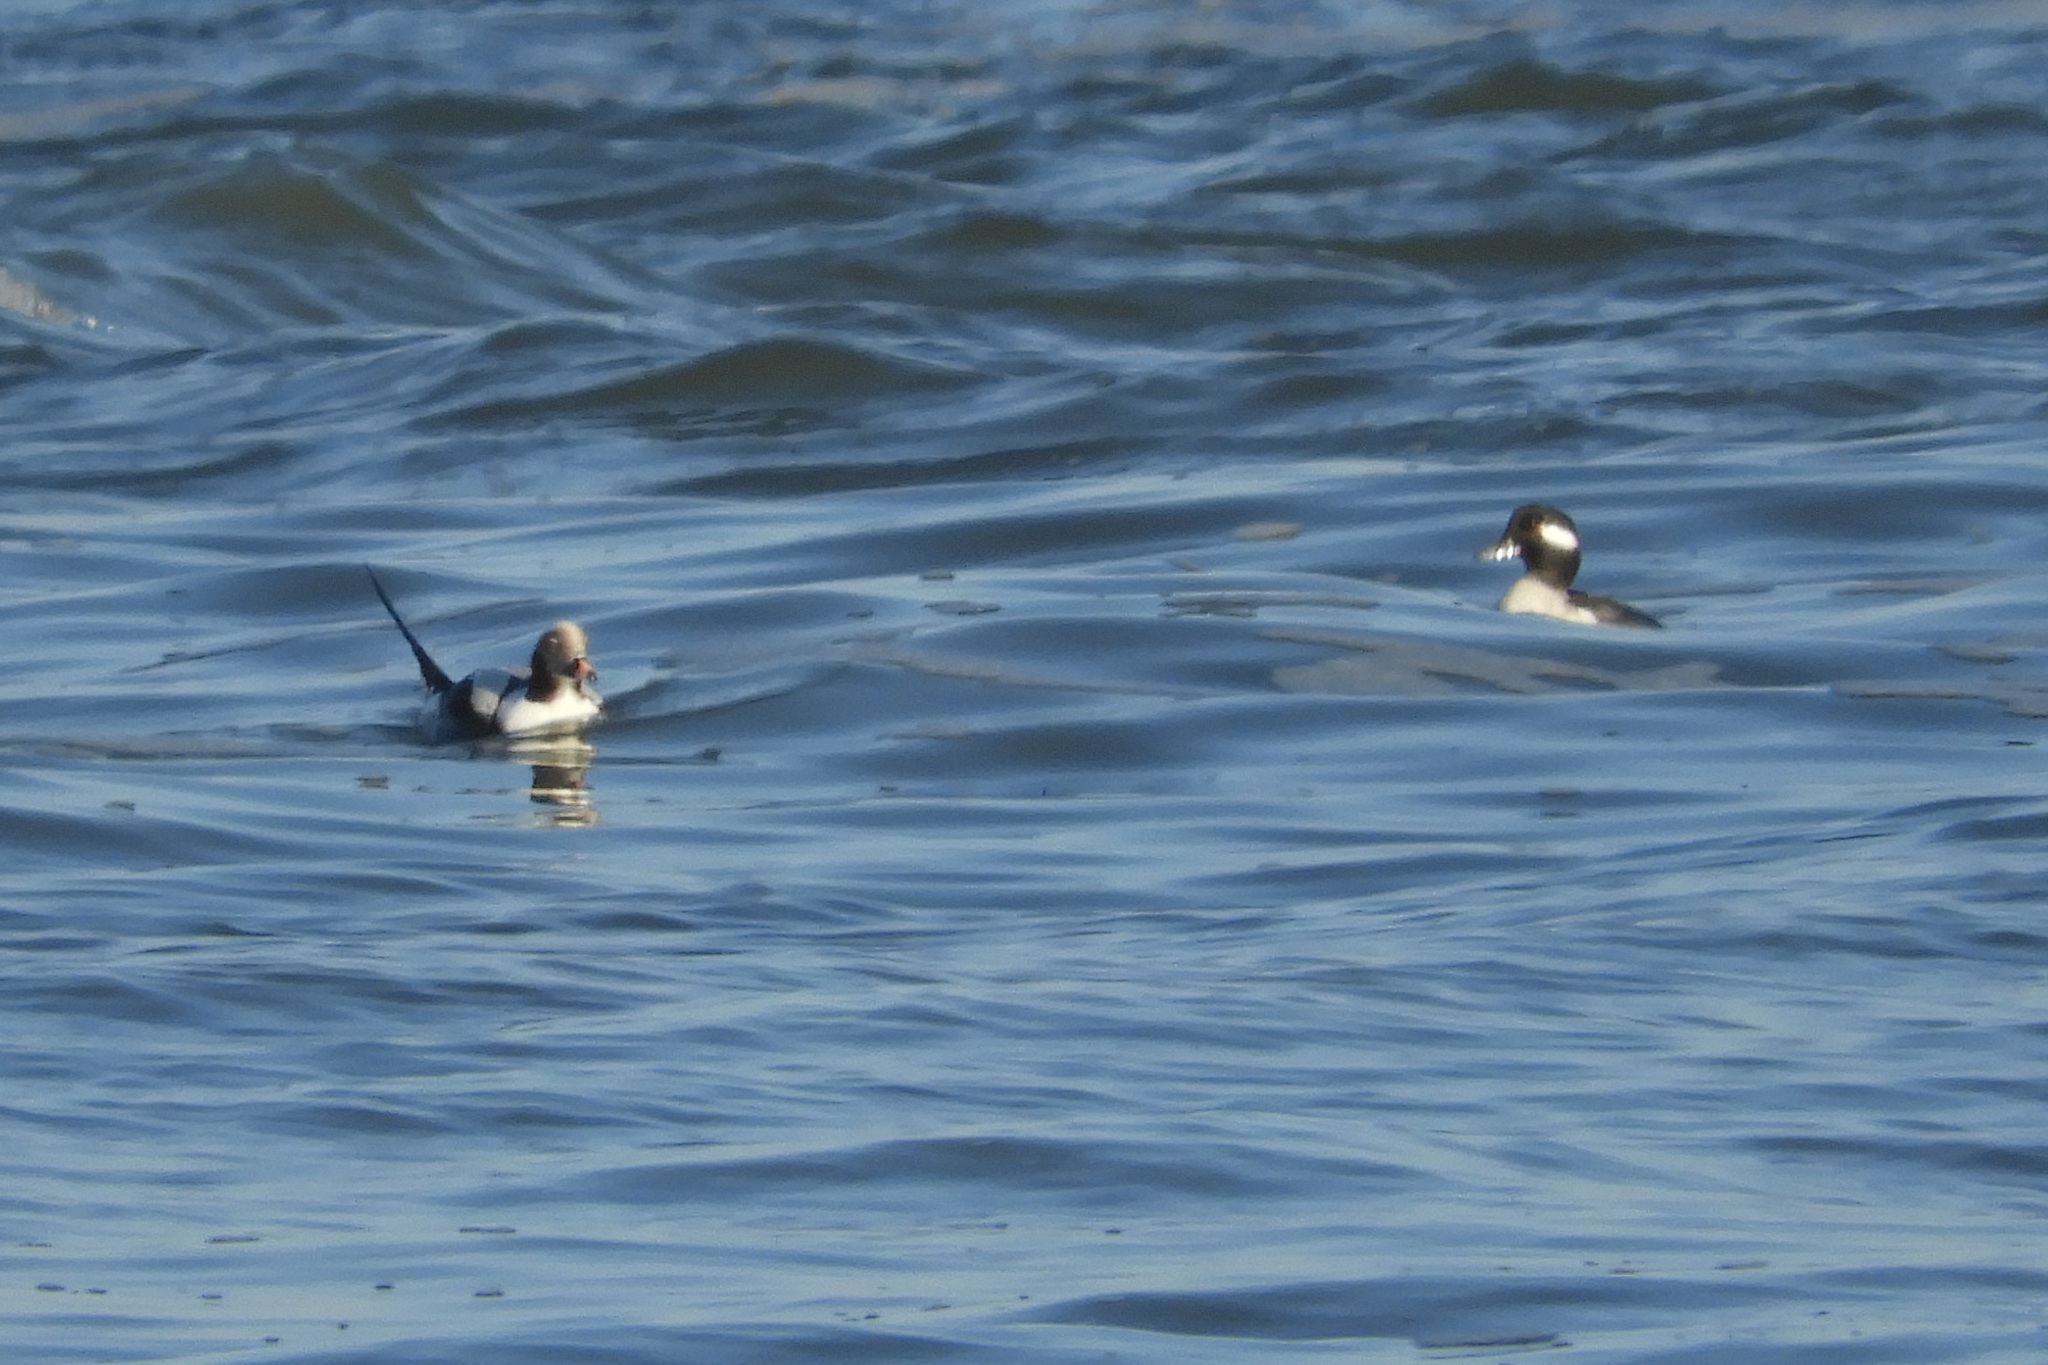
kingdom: Animalia
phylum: Chordata
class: Aves
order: Anseriformes
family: Anatidae
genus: Bucephala
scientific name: Bucephala albeola
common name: Bufflehead
